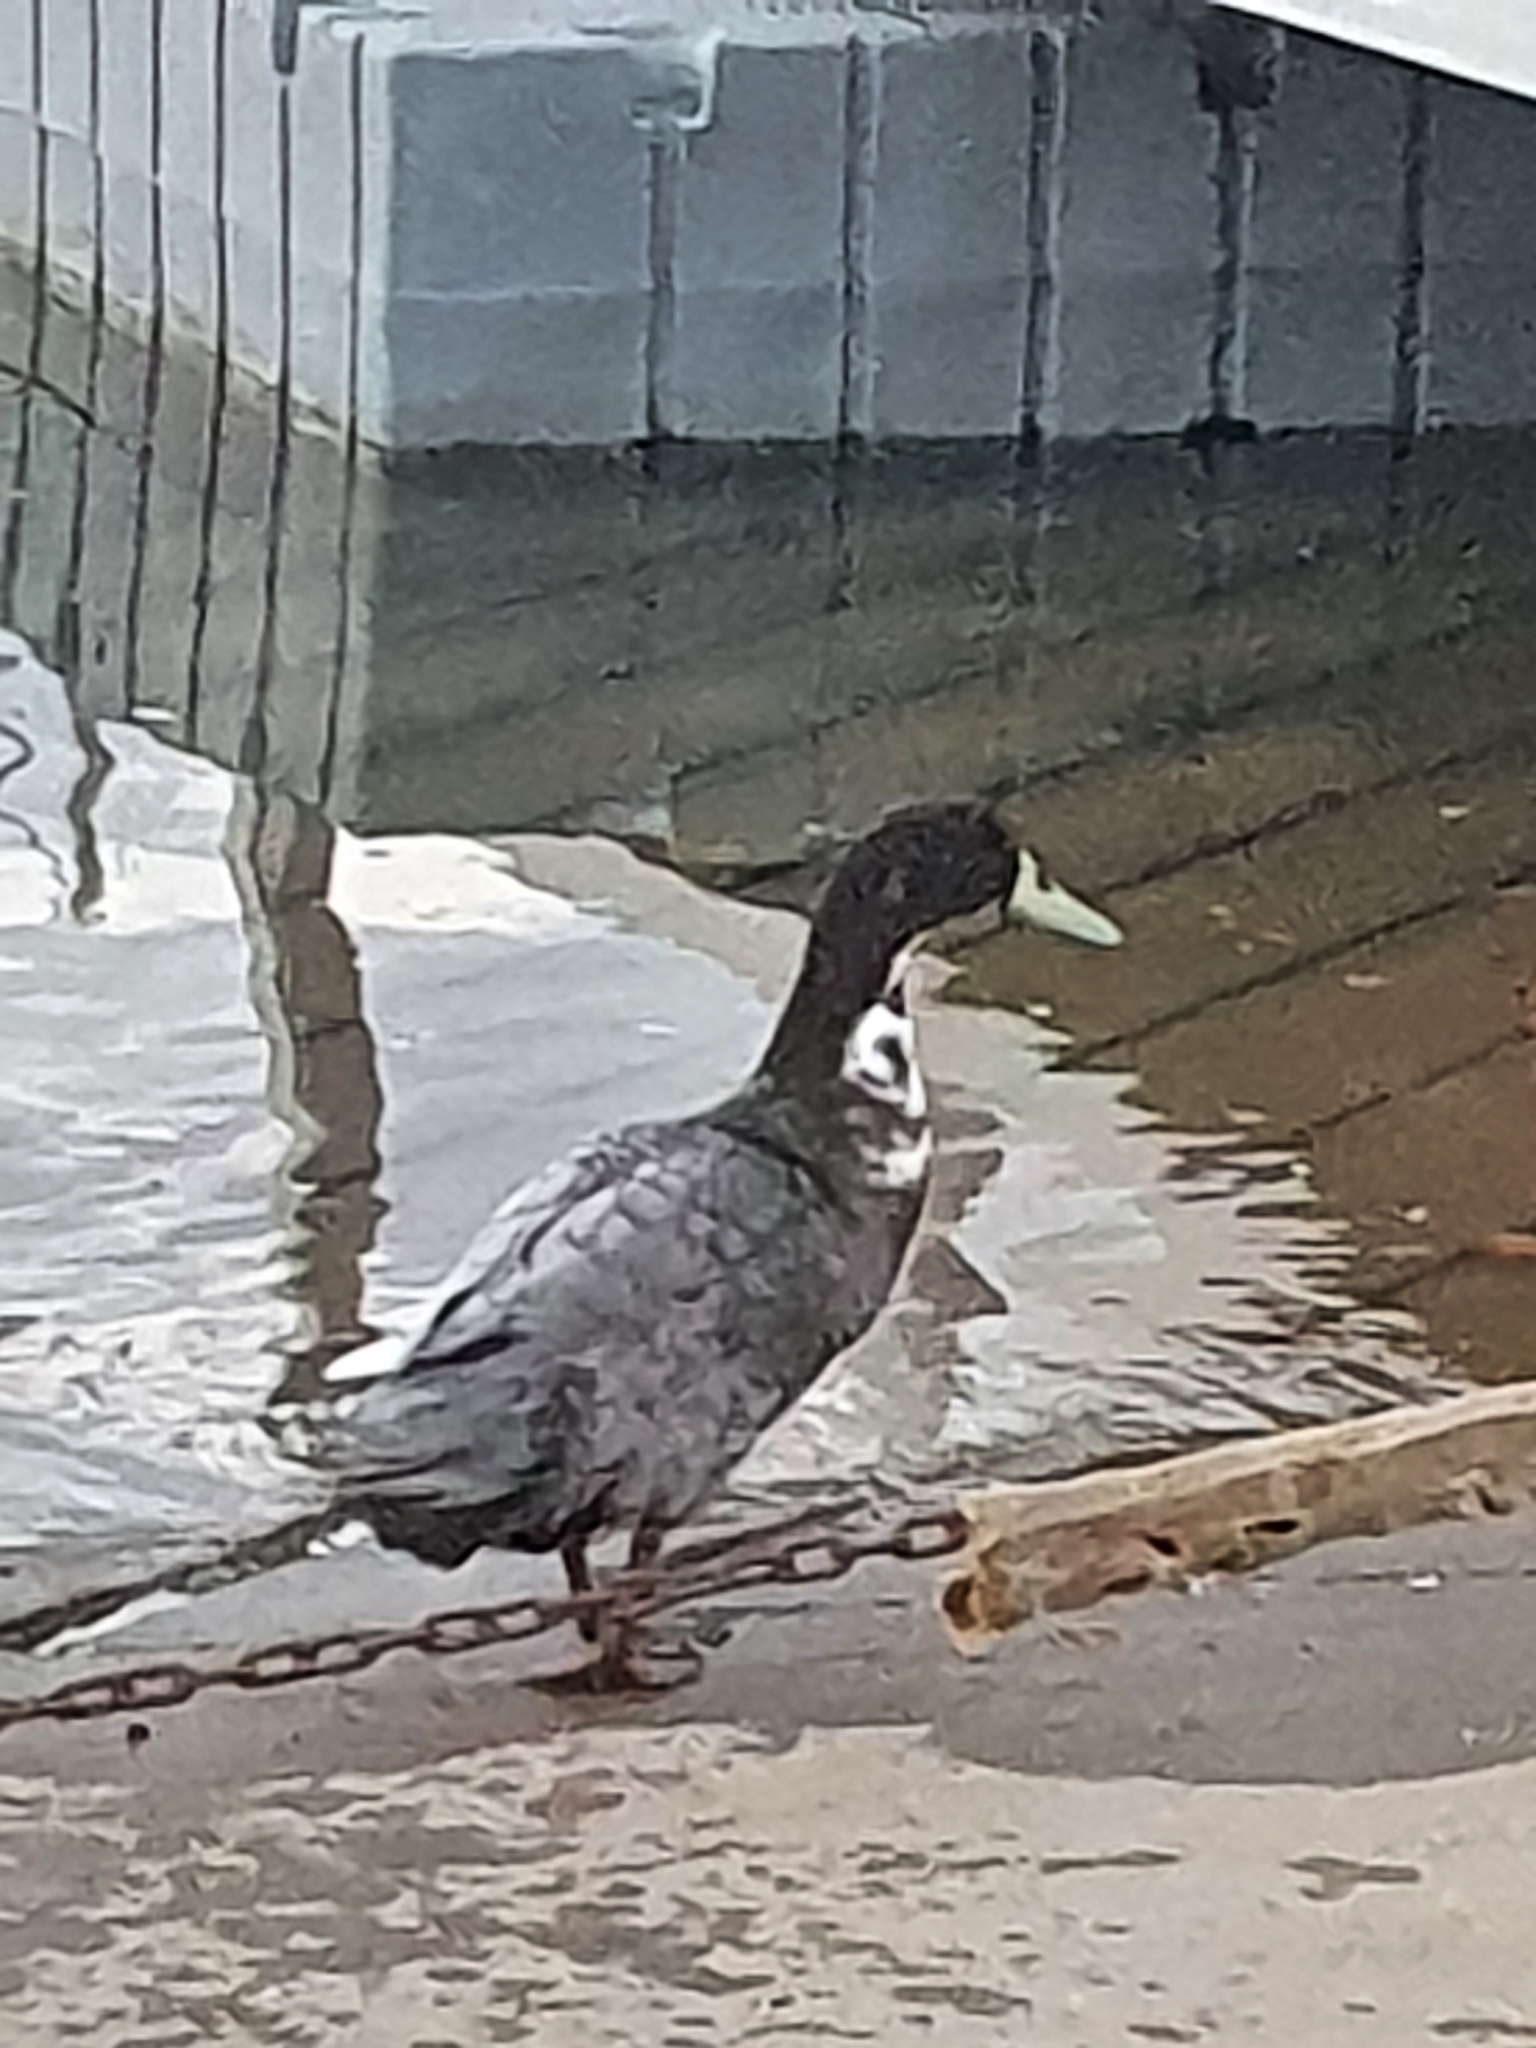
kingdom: Animalia
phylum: Chordata
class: Aves
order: Anseriformes
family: Anatidae
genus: Anas
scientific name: Anas platyrhynchos
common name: Mallard
